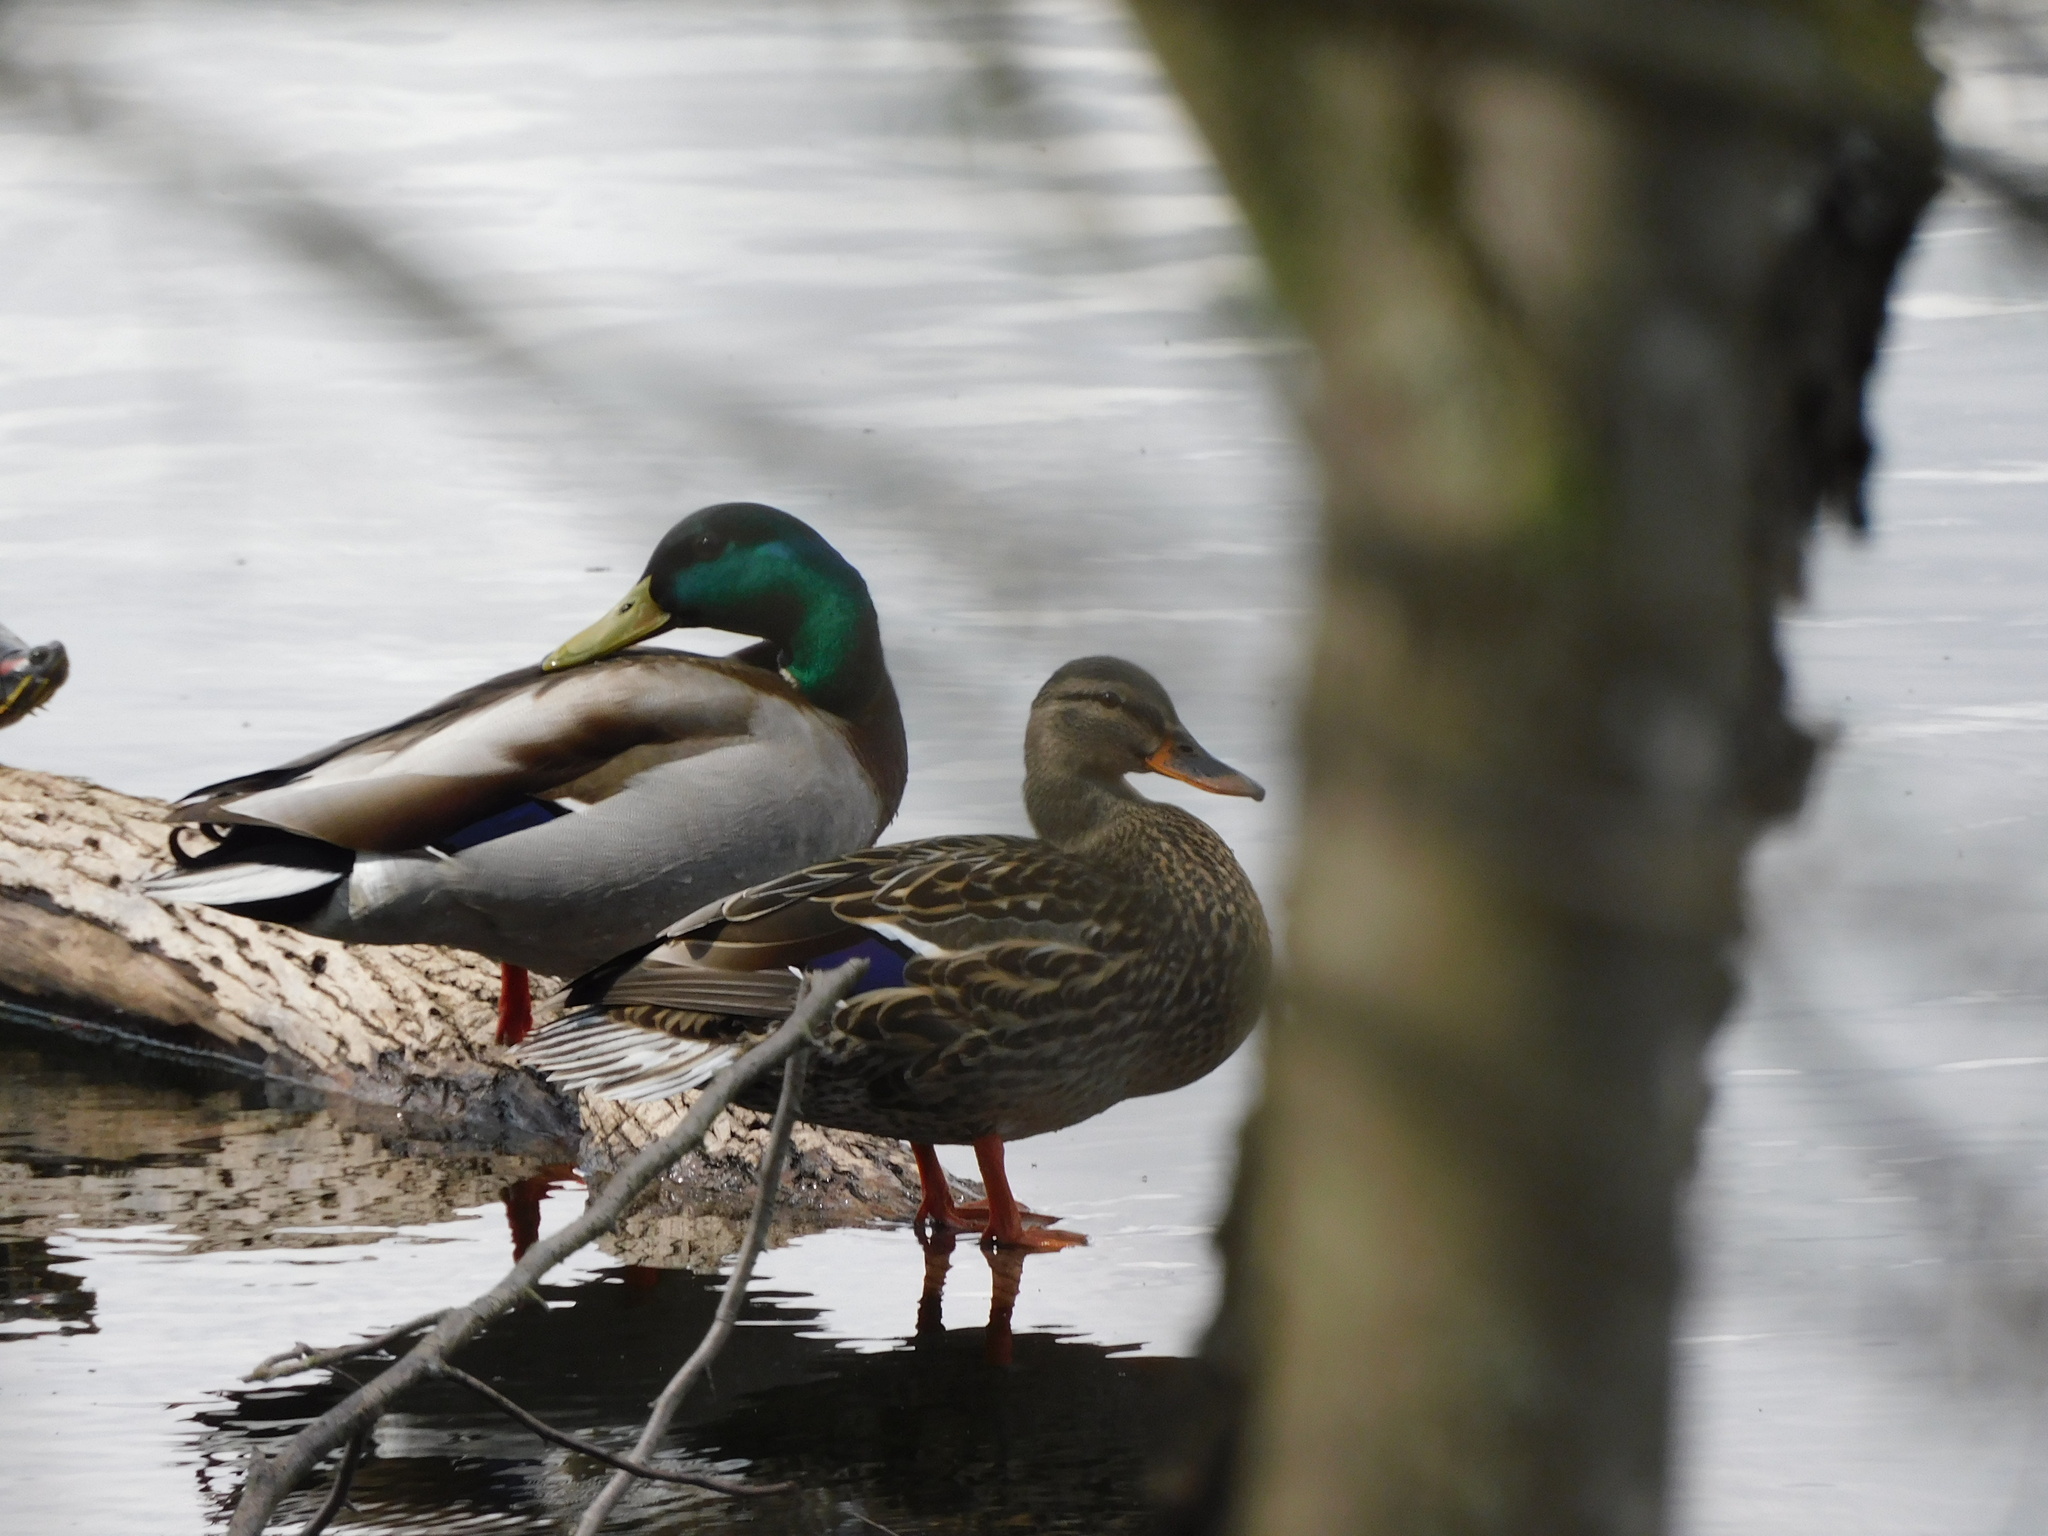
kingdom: Animalia
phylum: Chordata
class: Aves
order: Anseriformes
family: Anatidae
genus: Anas
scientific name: Anas platyrhynchos
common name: Mallard
